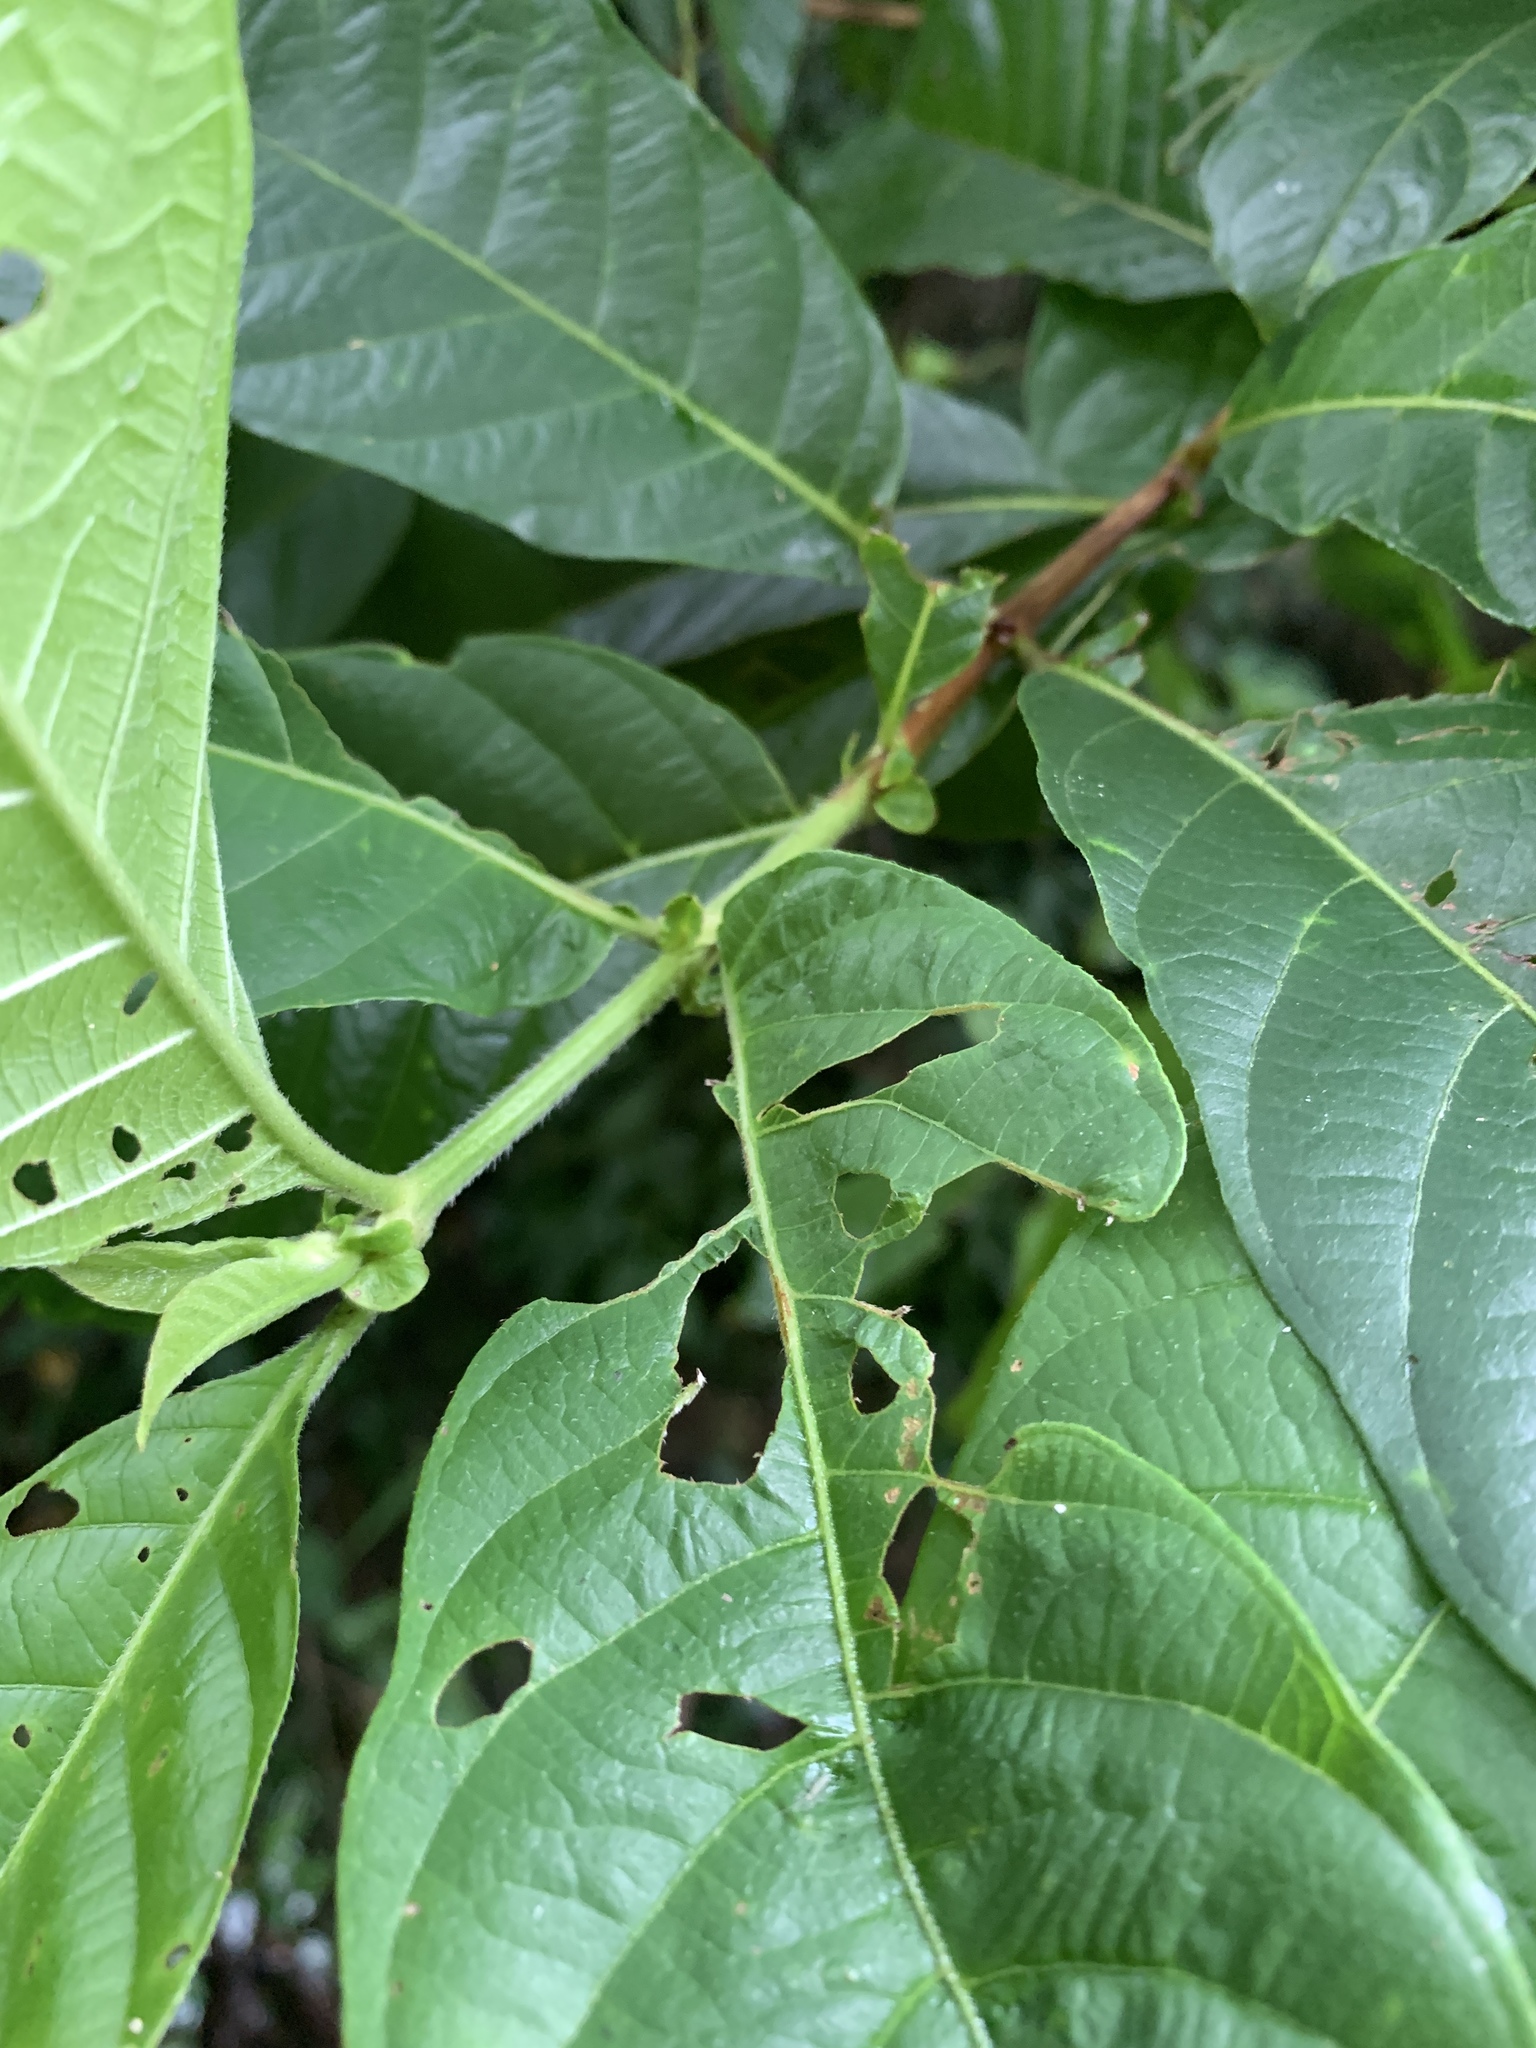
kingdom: Plantae
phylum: Tracheophyta
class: Magnoliopsida
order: Gentianales
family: Rubiaceae
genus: Wendlandia
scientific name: Wendlandia uvariifolia
